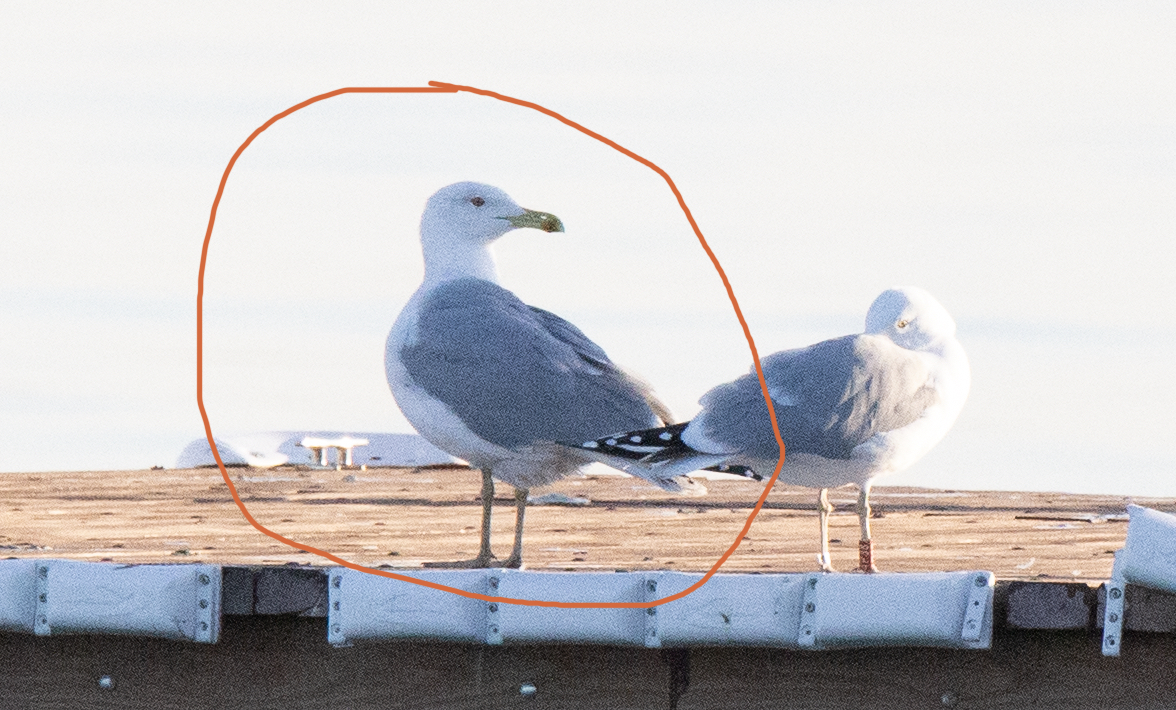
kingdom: Animalia
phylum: Chordata
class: Aves
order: Charadriiformes
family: Laridae
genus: Larus
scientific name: Larus michahellis
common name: Yellow-legged gull
